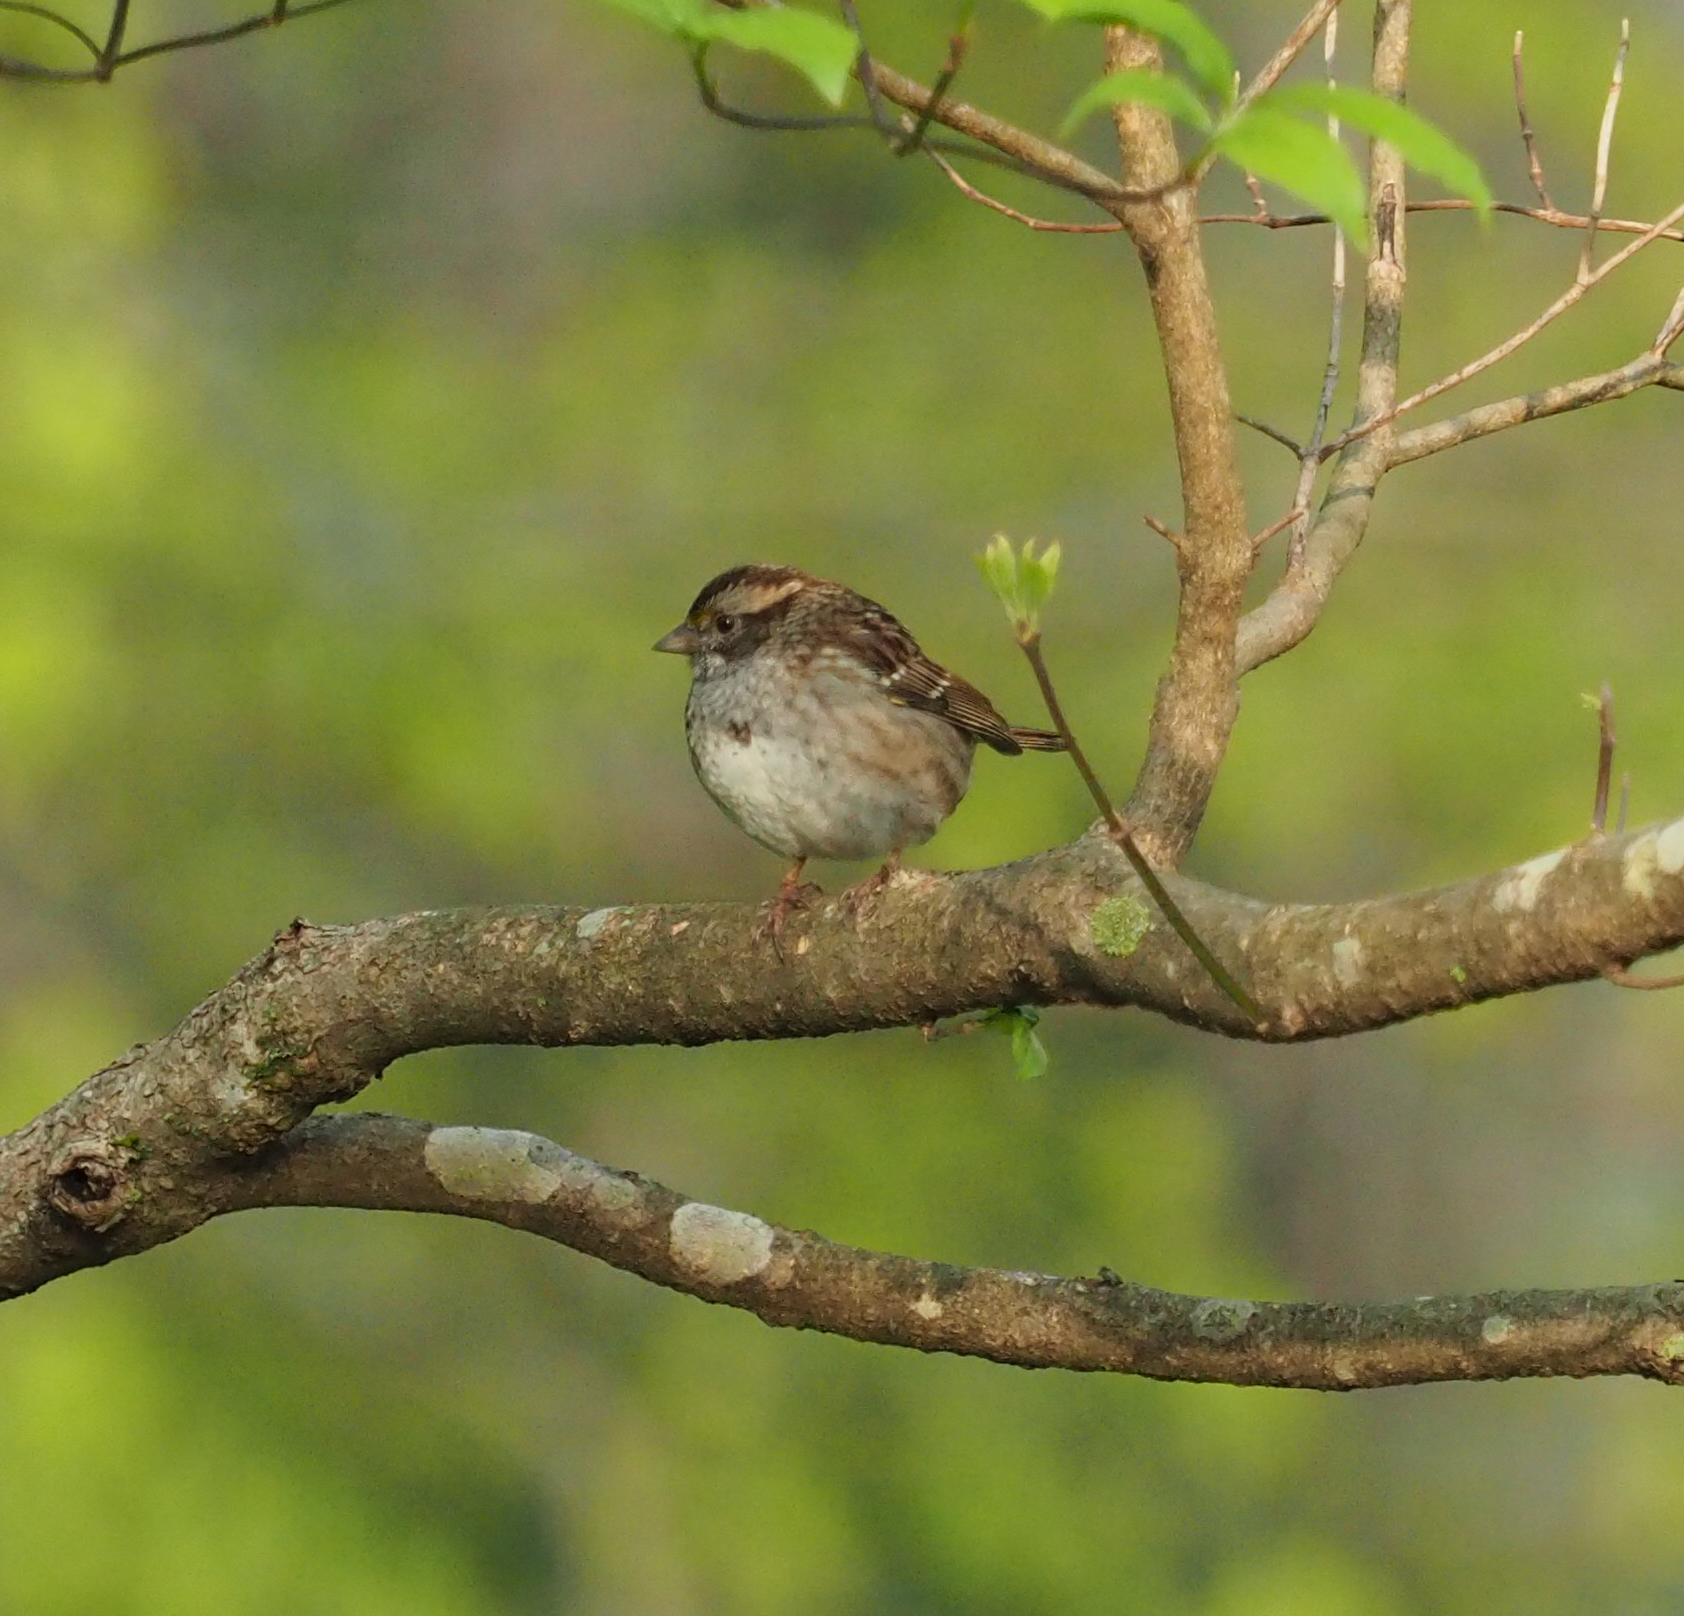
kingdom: Animalia
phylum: Chordata
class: Aves
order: Passeriformes
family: Passerellidae
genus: Zonotrichia
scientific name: Zonotrichia albicollis
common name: White-throated sparrow
